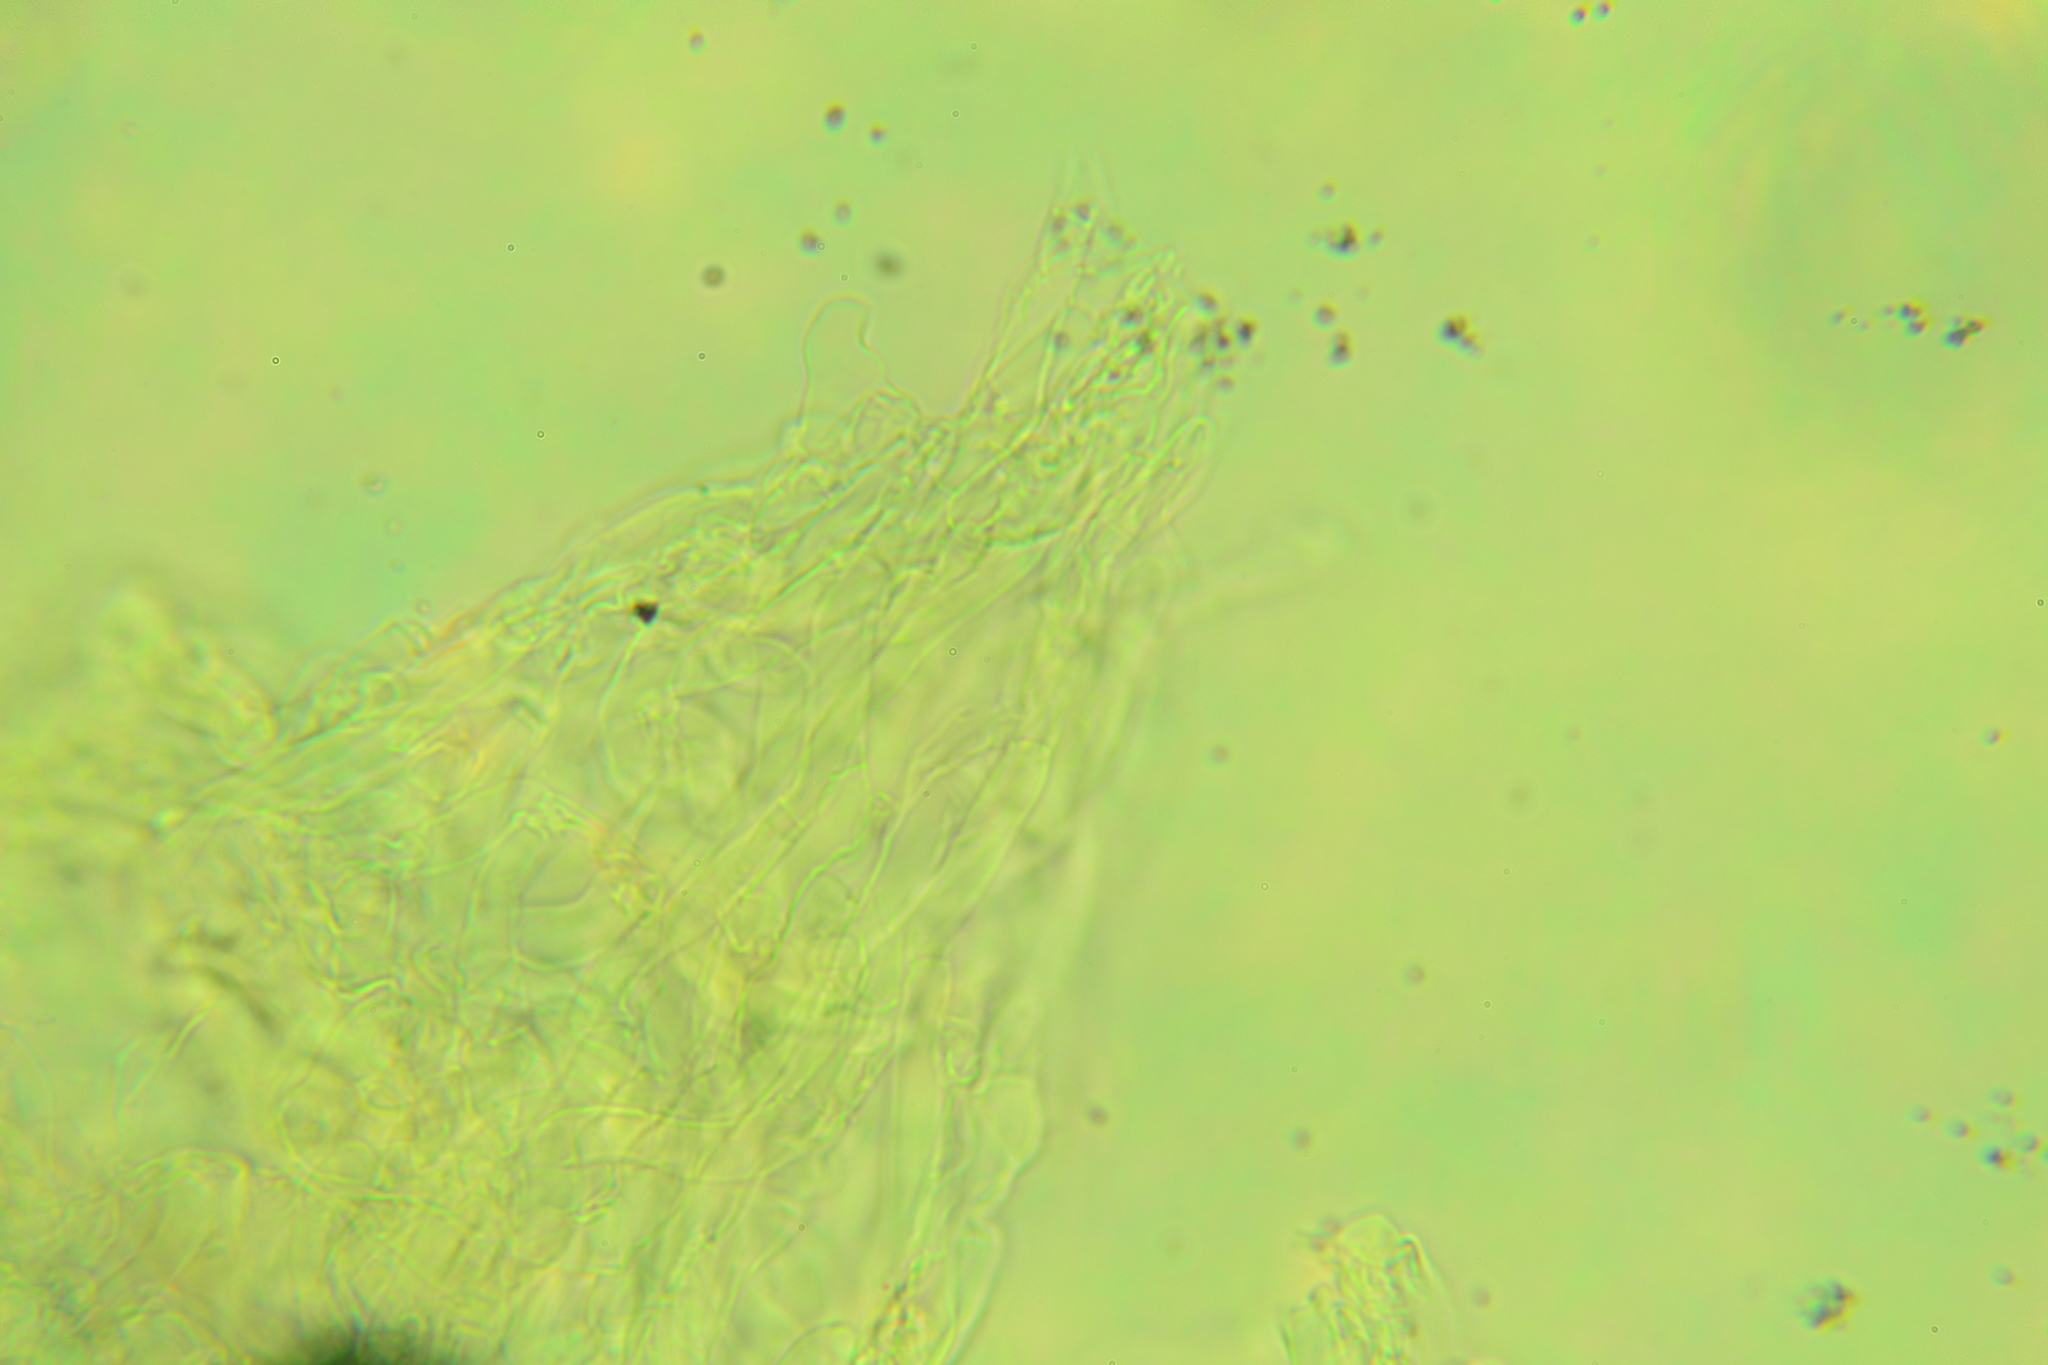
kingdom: Fungi
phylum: Basidiomycota
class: Agaricomycetes
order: Agaricales
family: Tricholomataceae
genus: Clitocybe
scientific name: Clitocybe americana
